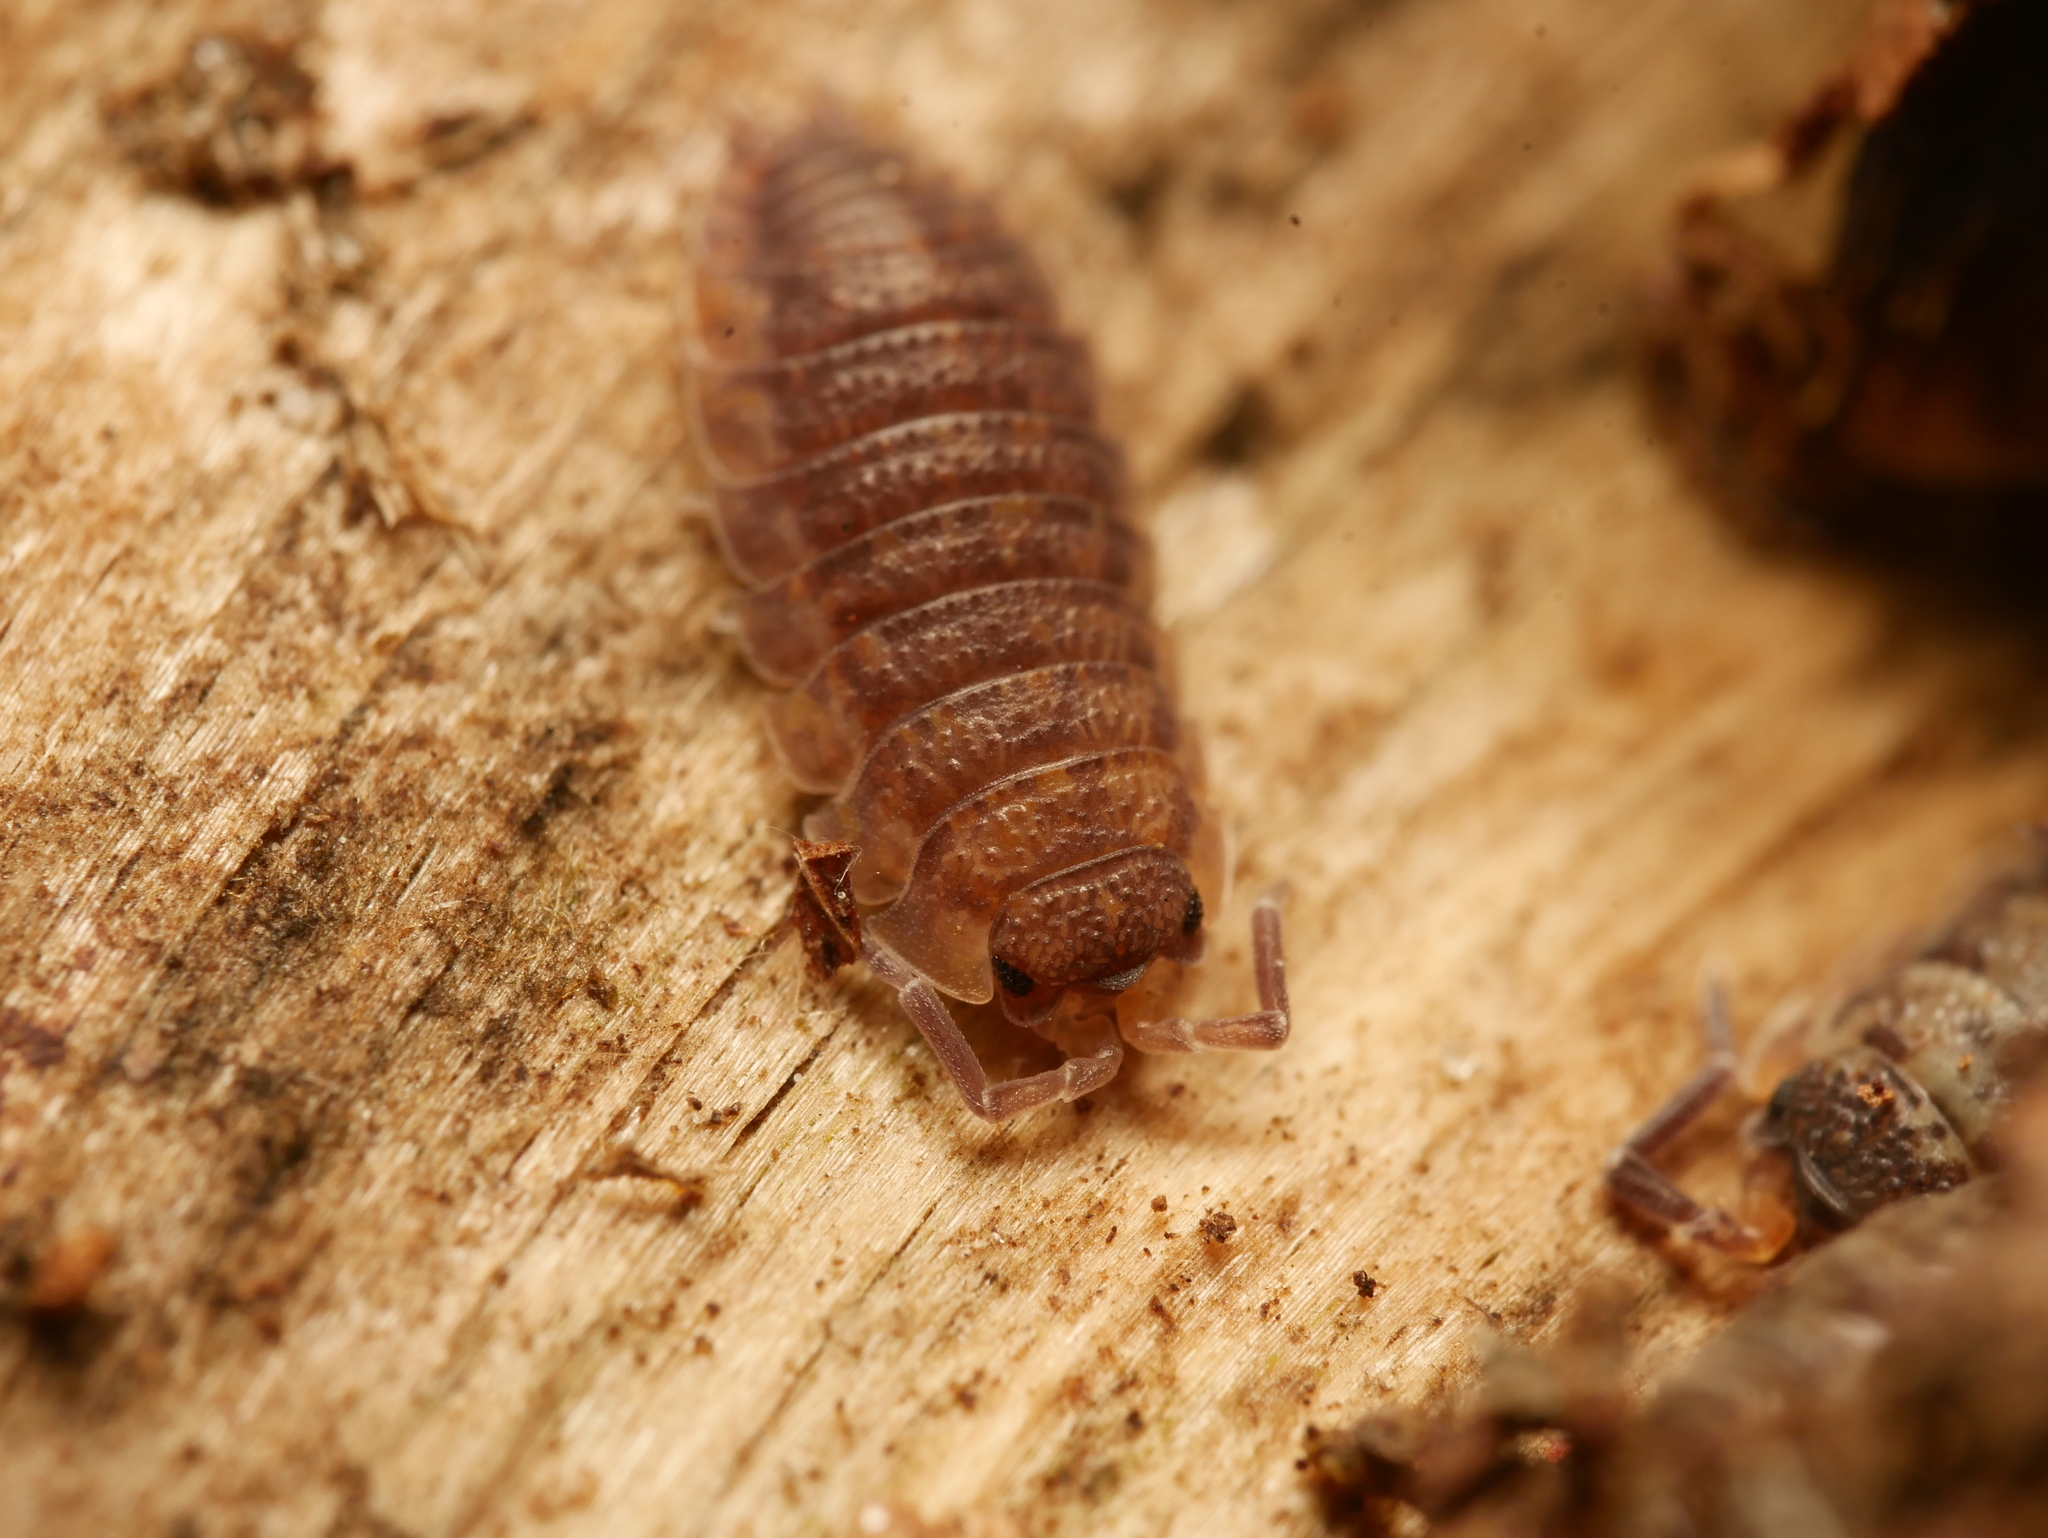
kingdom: Animalia
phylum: Arthropoda
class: Malacostraca
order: Isopoda
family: Porcellionidae
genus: Porcellio
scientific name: Porcellio scaber
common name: Common rough woodlouse
